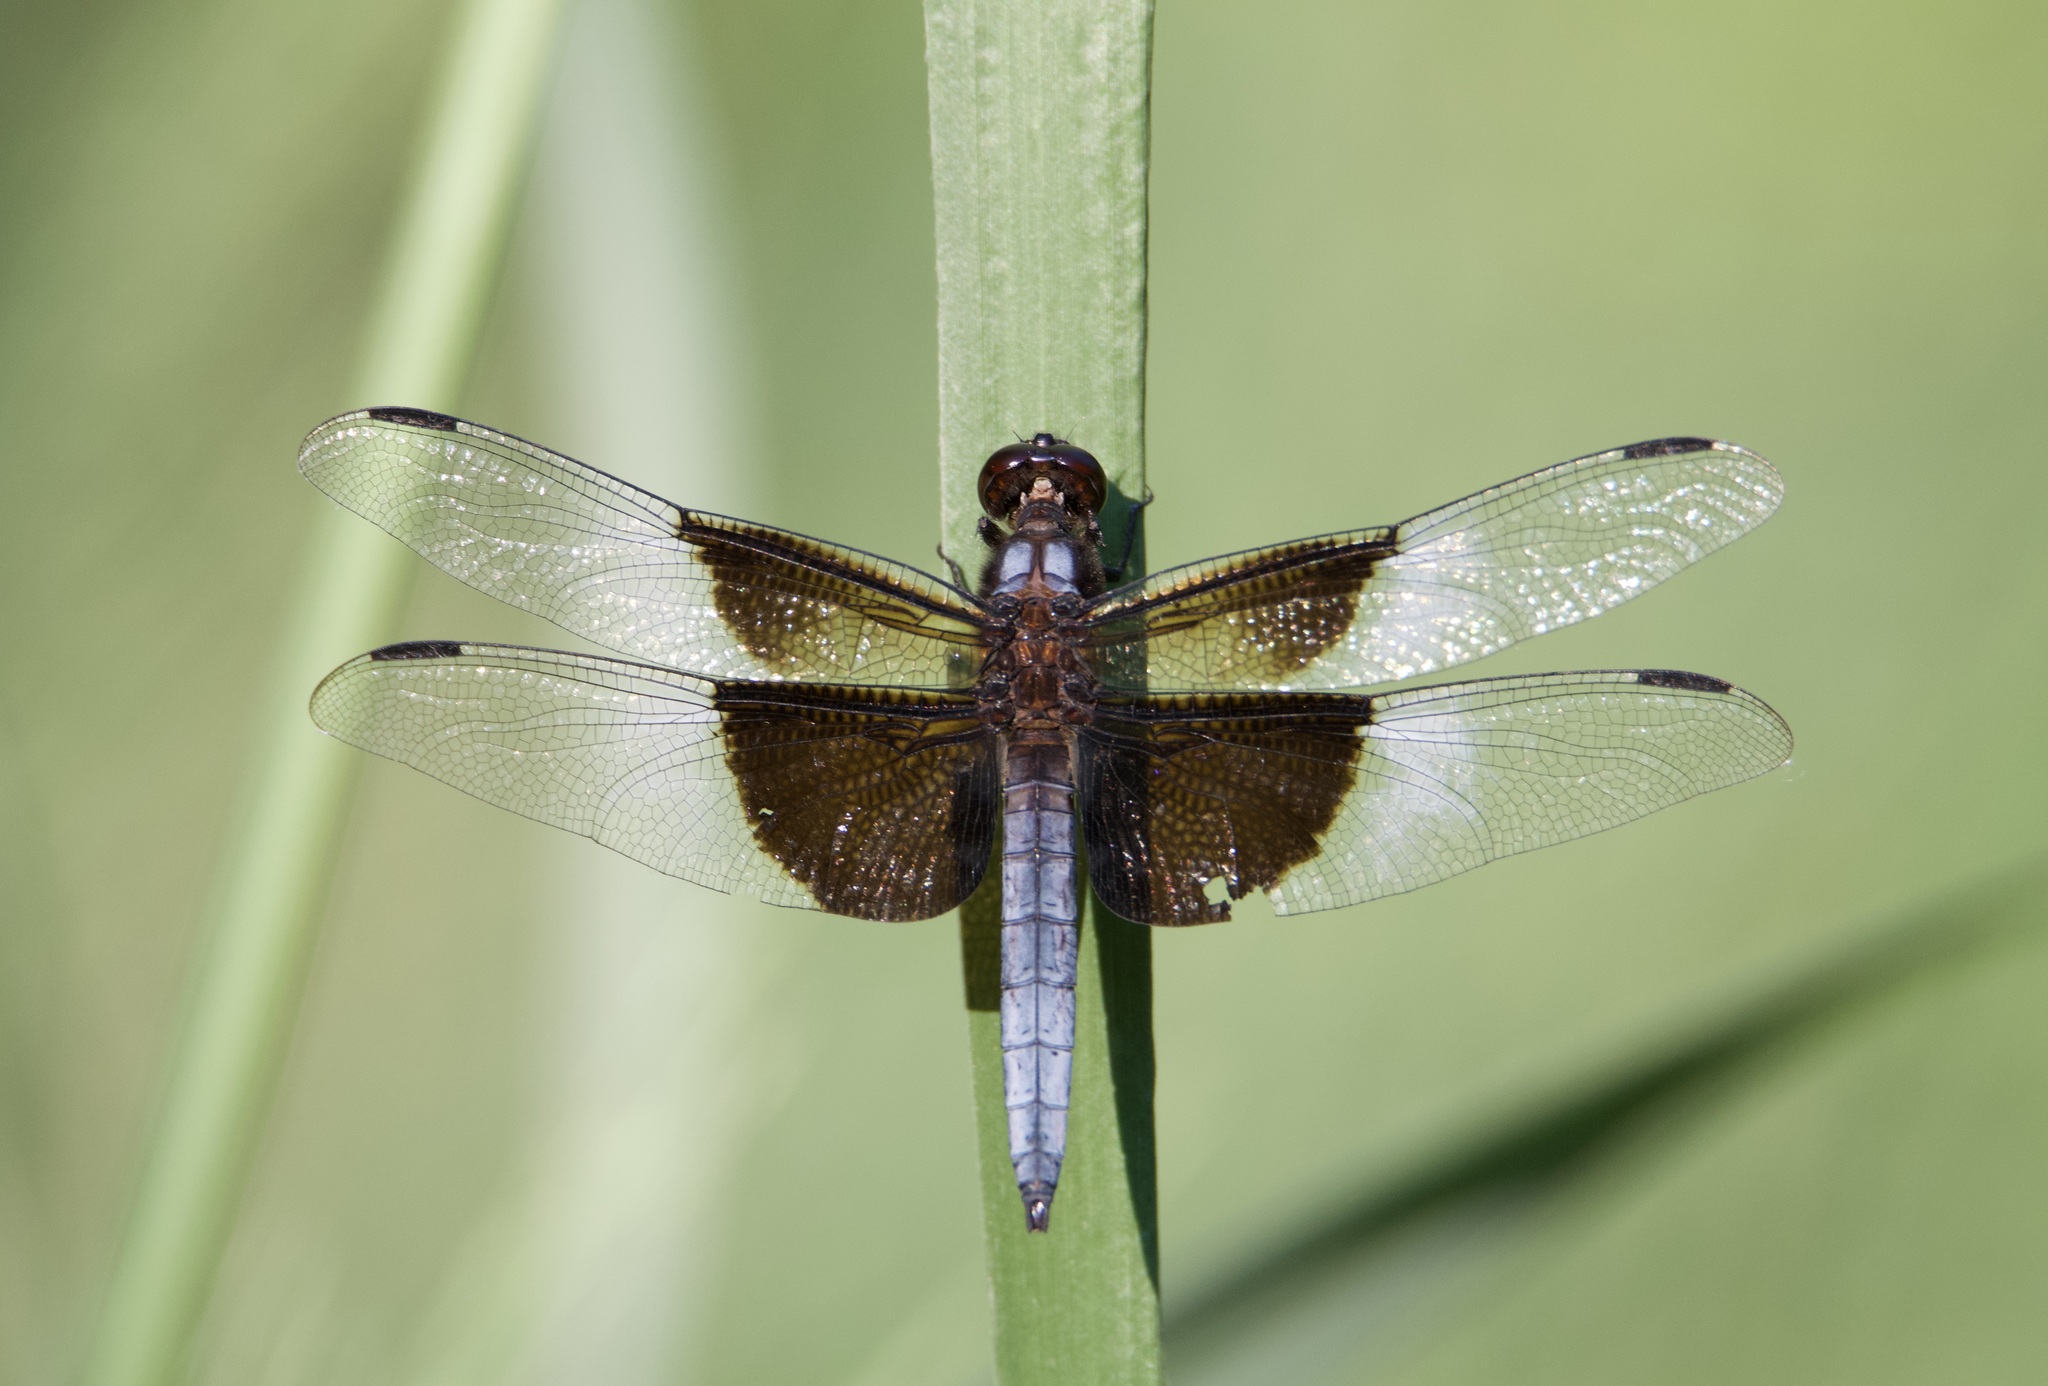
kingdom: Animalia
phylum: Arthropoda
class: Insecta
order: Odonata
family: Libellulidae
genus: Libellula
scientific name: Libellula luctuosa
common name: Widow skimmer
